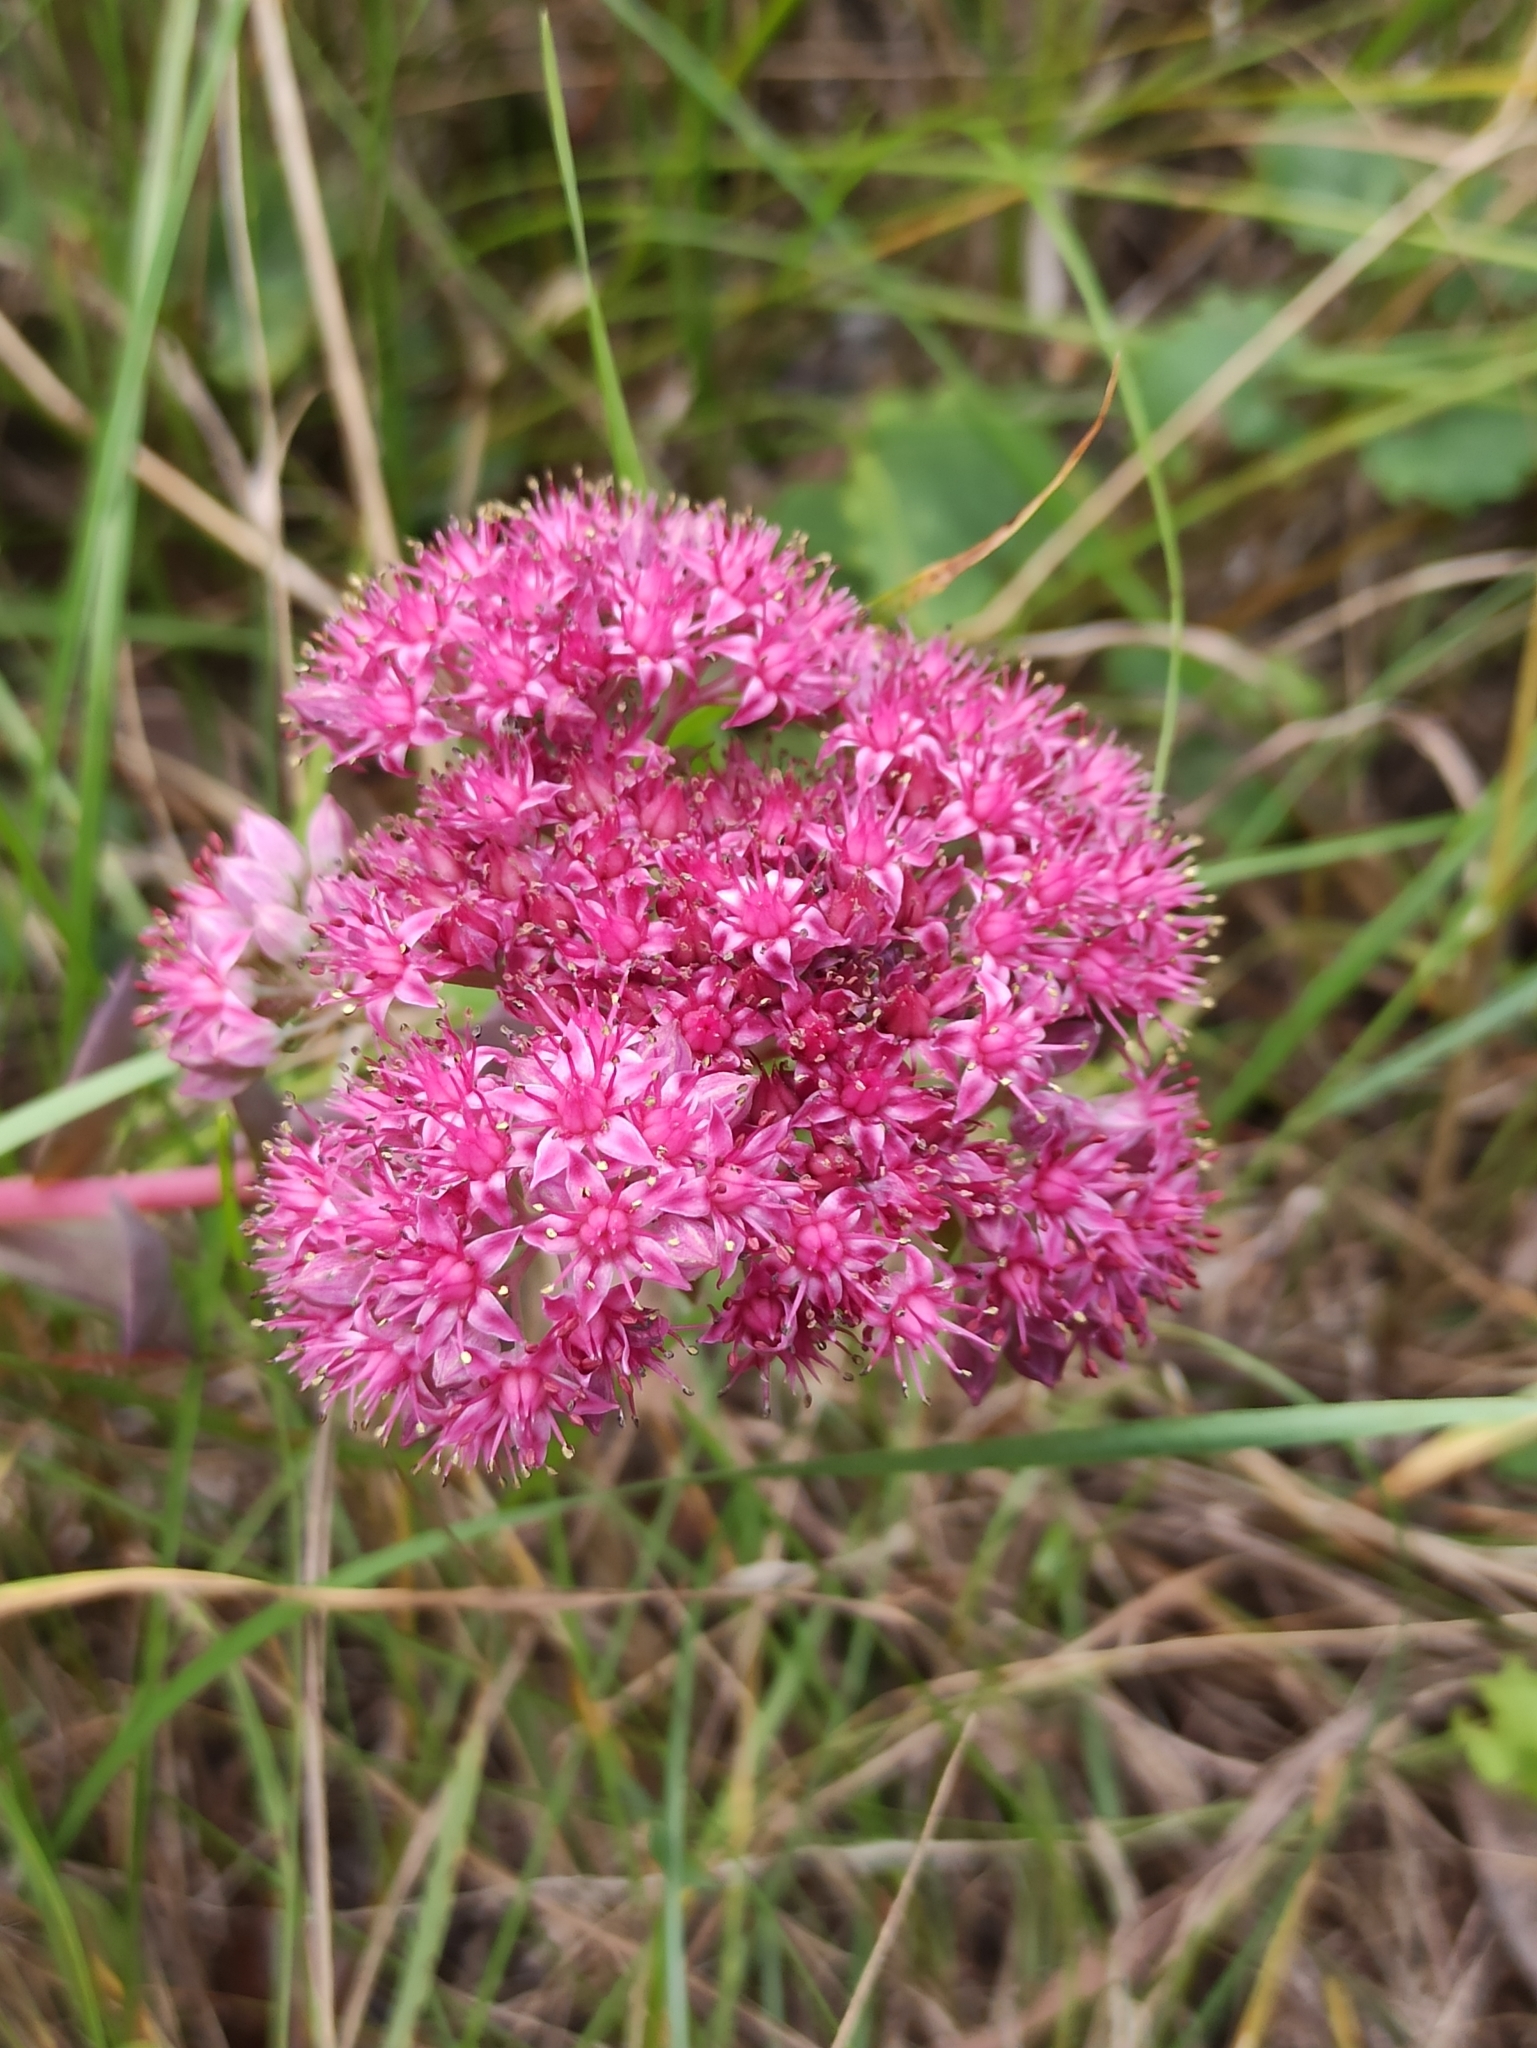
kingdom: Plantae
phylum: Tracheophyta
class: Magnoliopsida
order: Saxifragales
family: Crassulaceae
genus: Hylotelephium
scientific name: Hylotelephium telephium
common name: Live-forever
